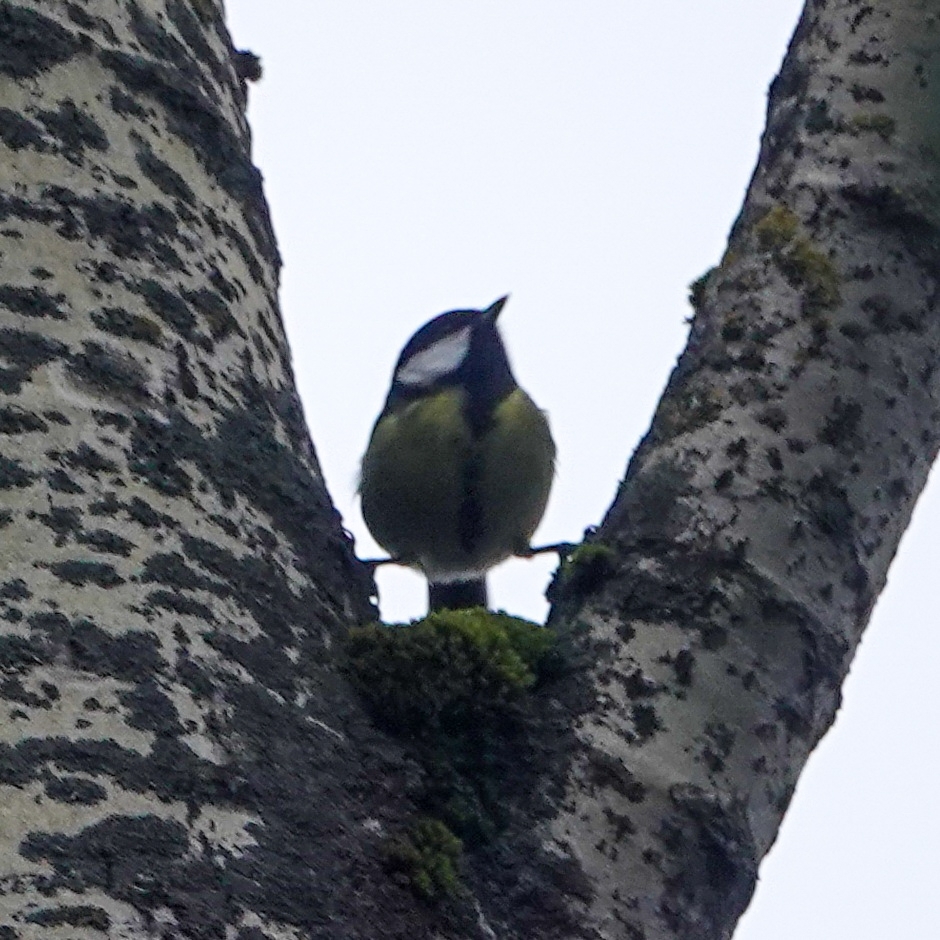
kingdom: Animalia
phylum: Chordata
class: Aves
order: Passeriformes
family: Paridae
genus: Parus
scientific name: Parus major
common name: Great tit
